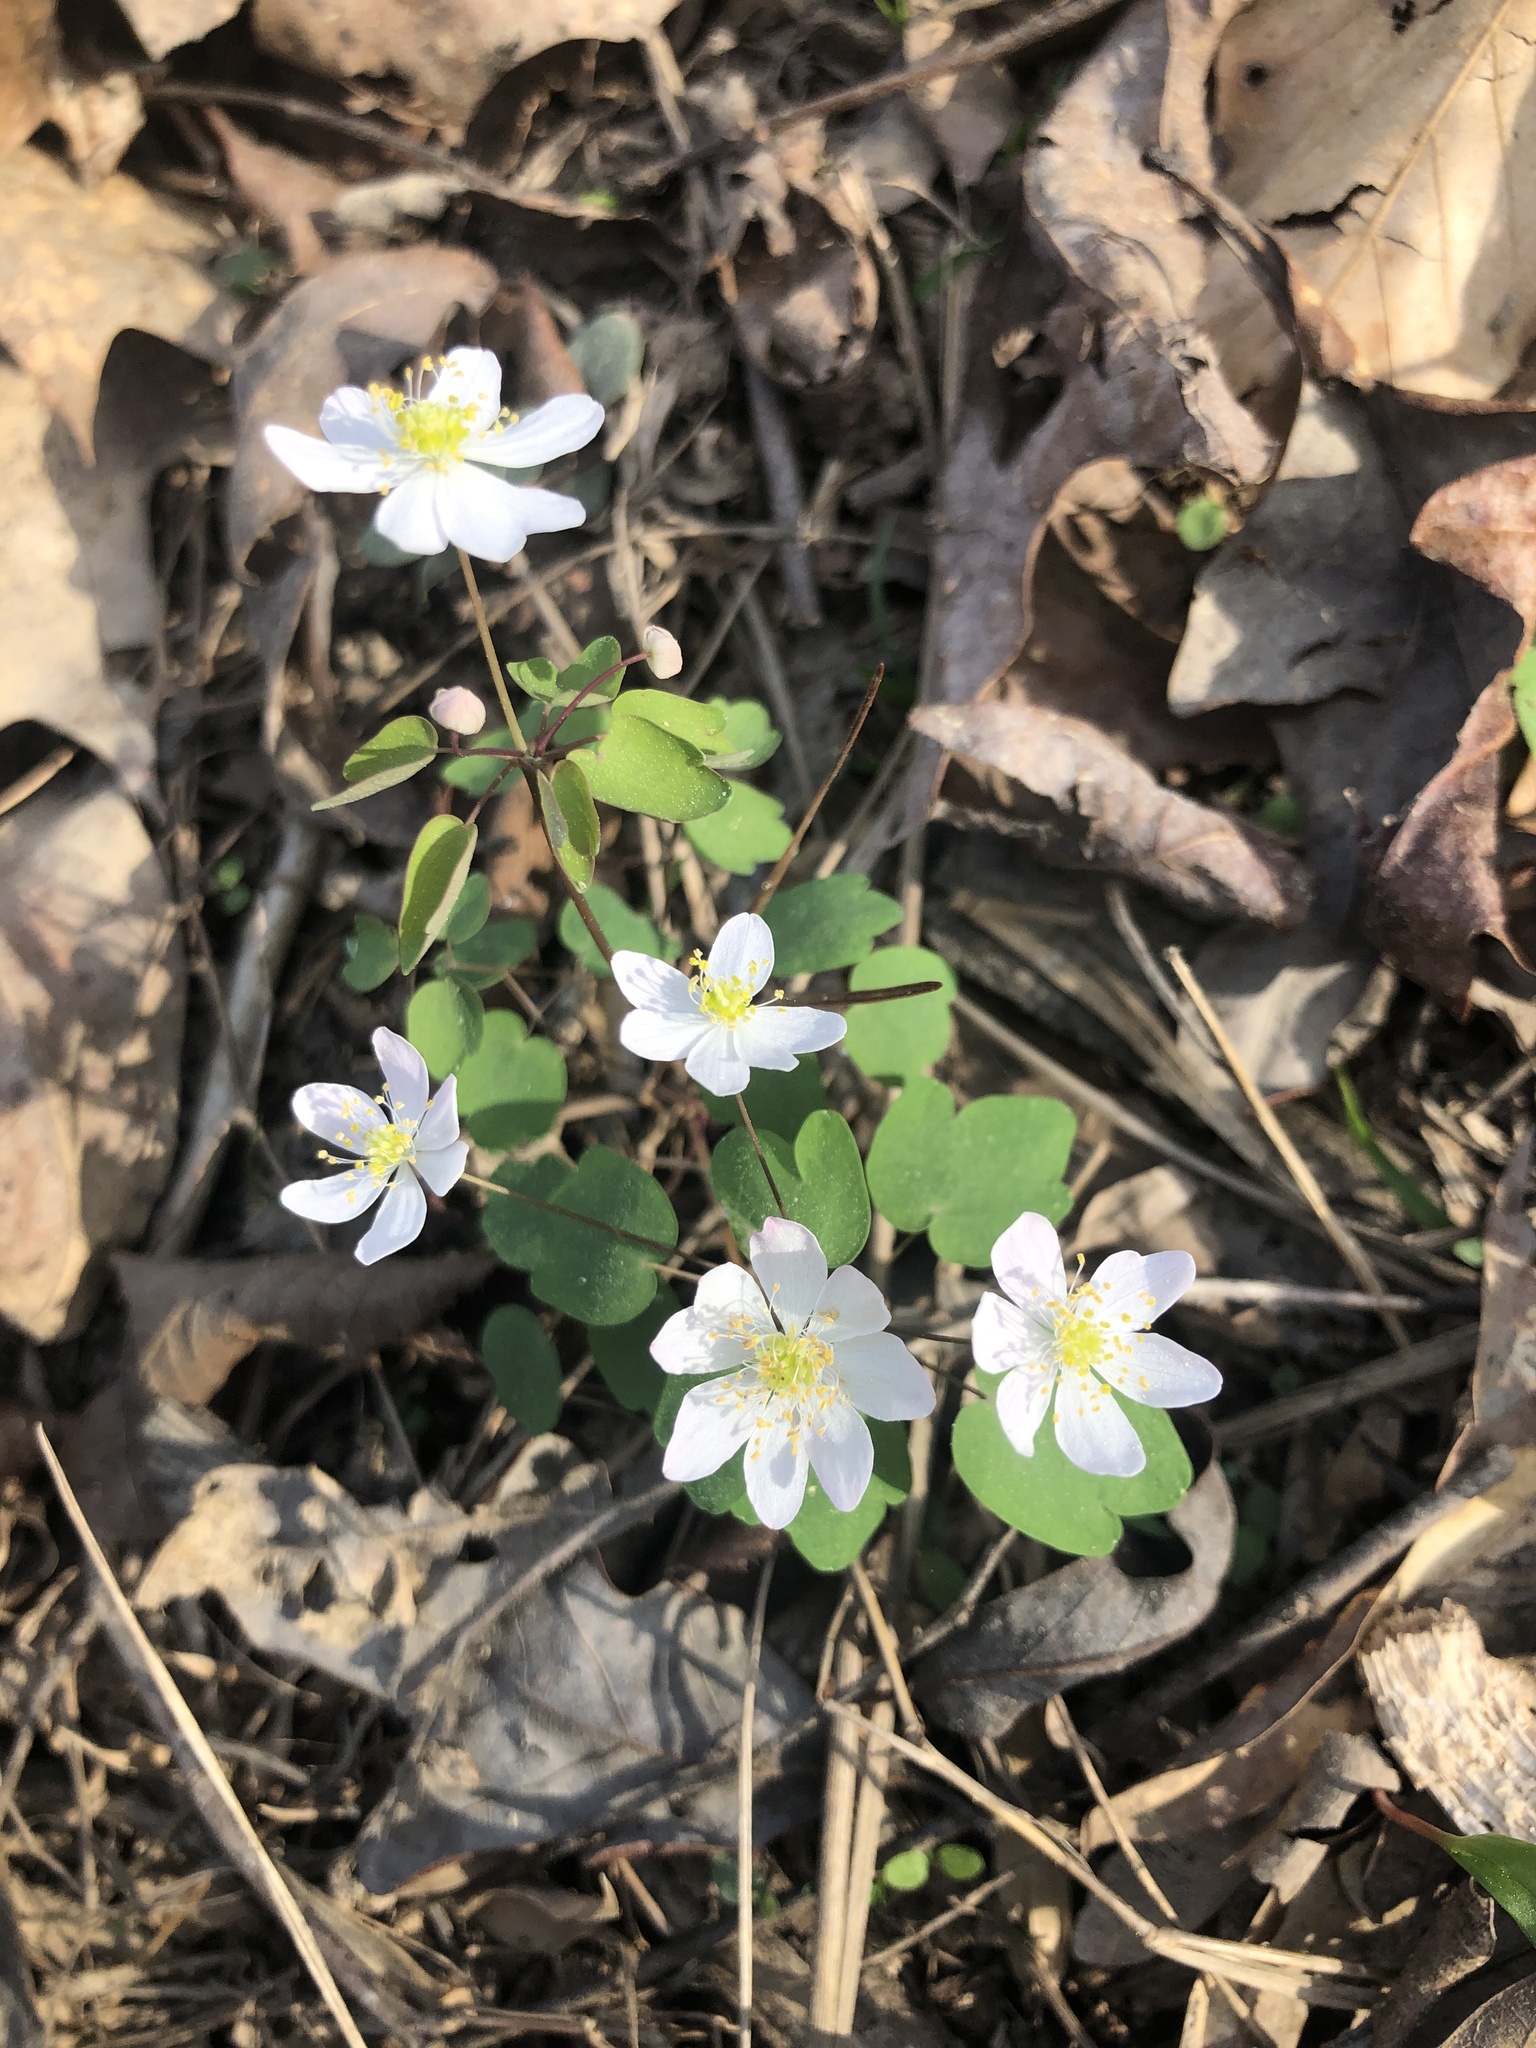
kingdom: Plantae
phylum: Tracheophyta
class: Magnoliopsida
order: Ranunculales
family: Ranunculaceae
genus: Thalictrum
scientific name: Thalictrum thalictroides
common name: Rue-anemone
